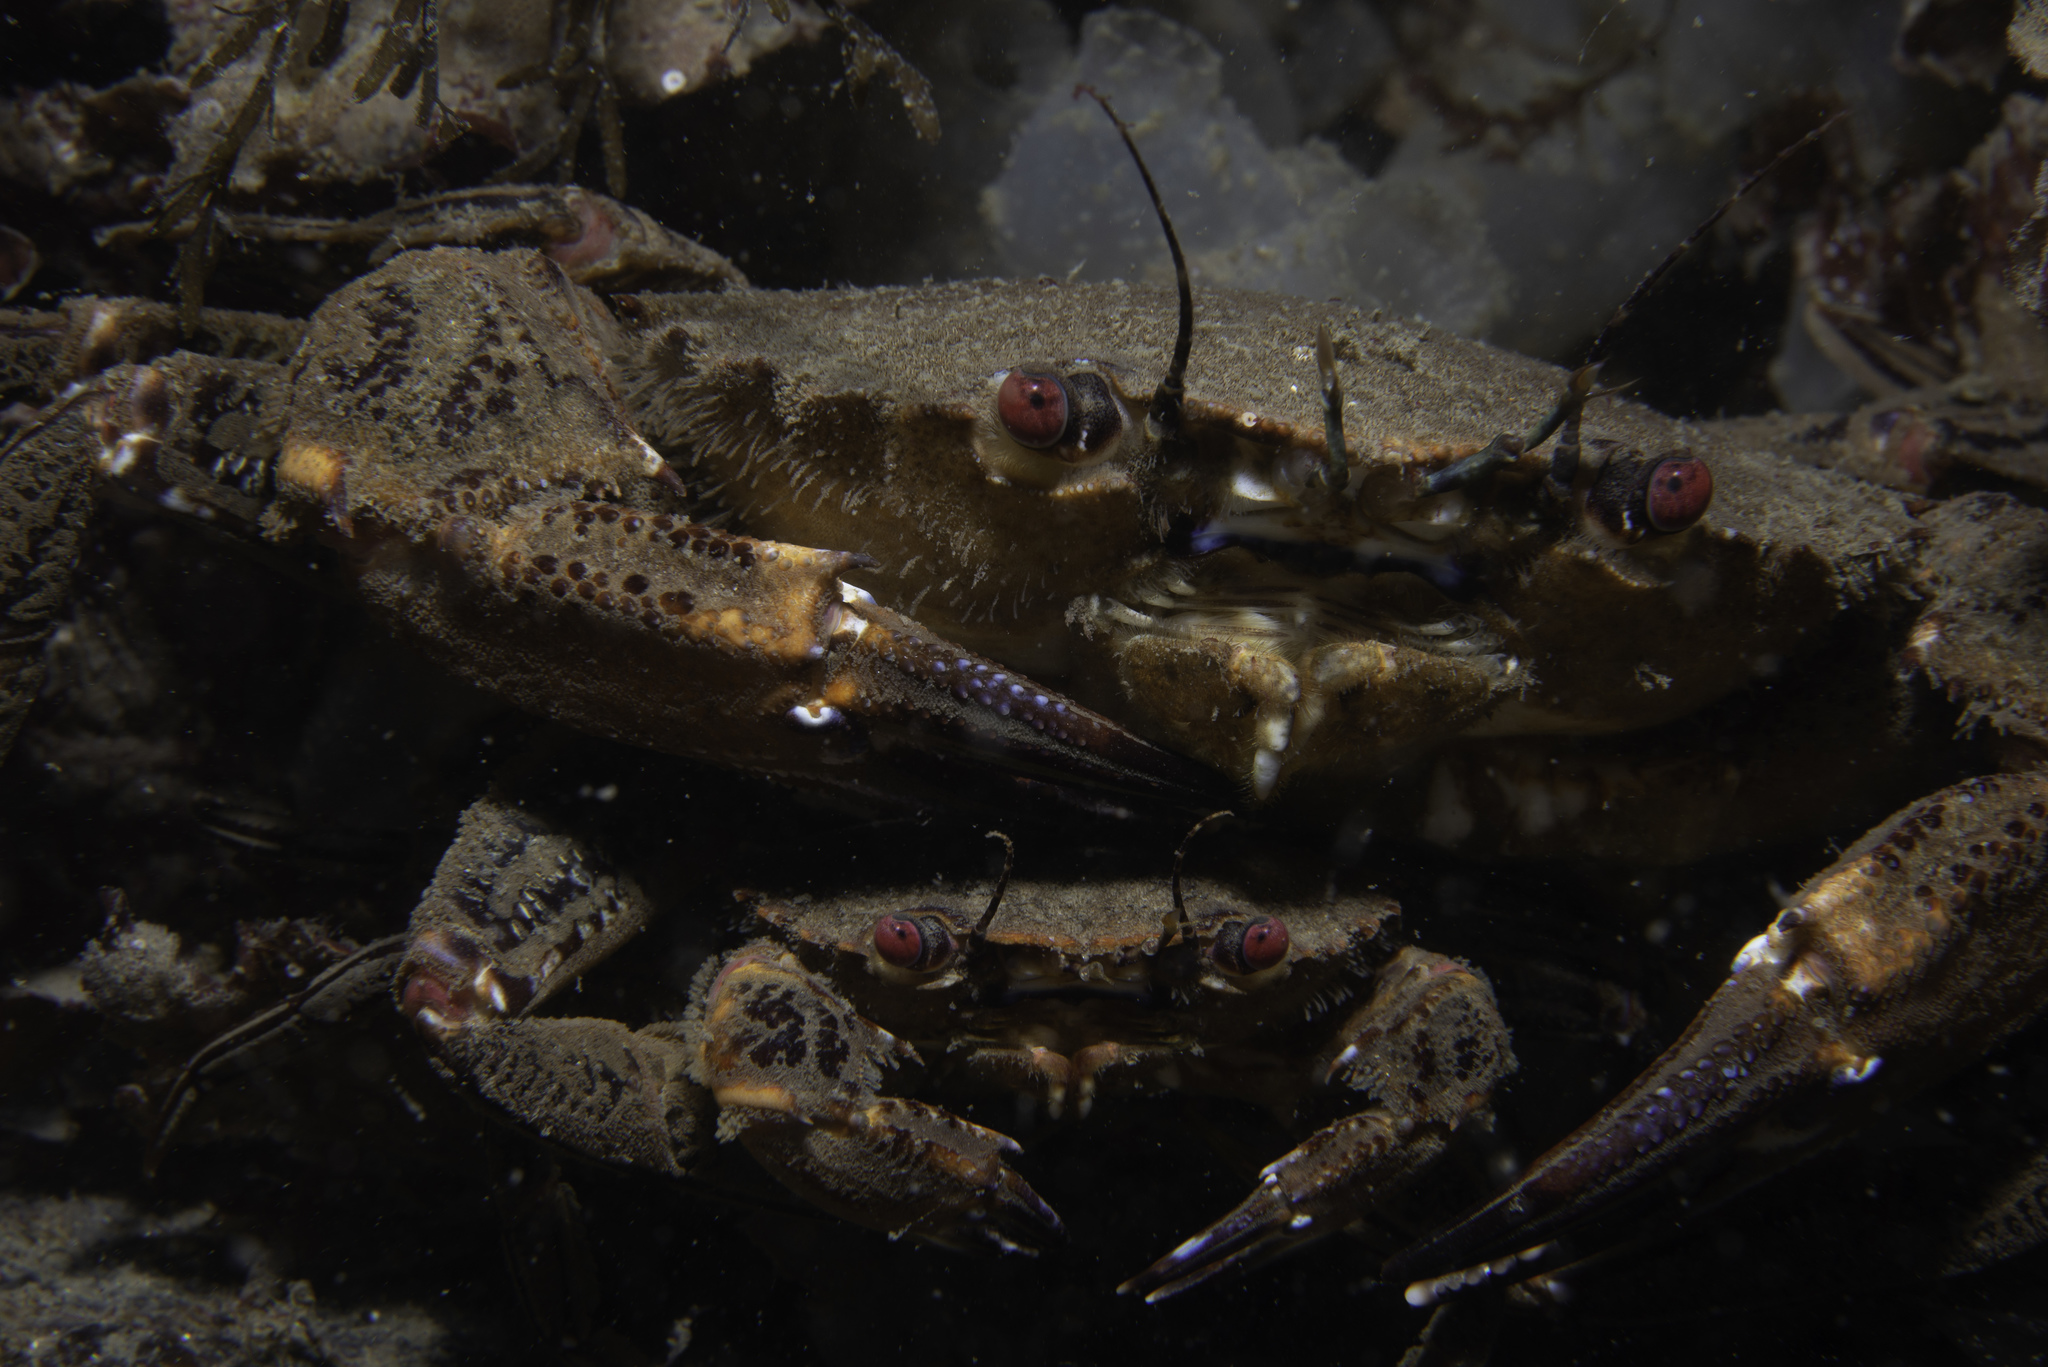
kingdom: Animalia
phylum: Arthropoda
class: Malacostraca
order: Decapoda
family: Polybiidae
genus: Necora
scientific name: Necora puber
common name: Velvet swimming crab
